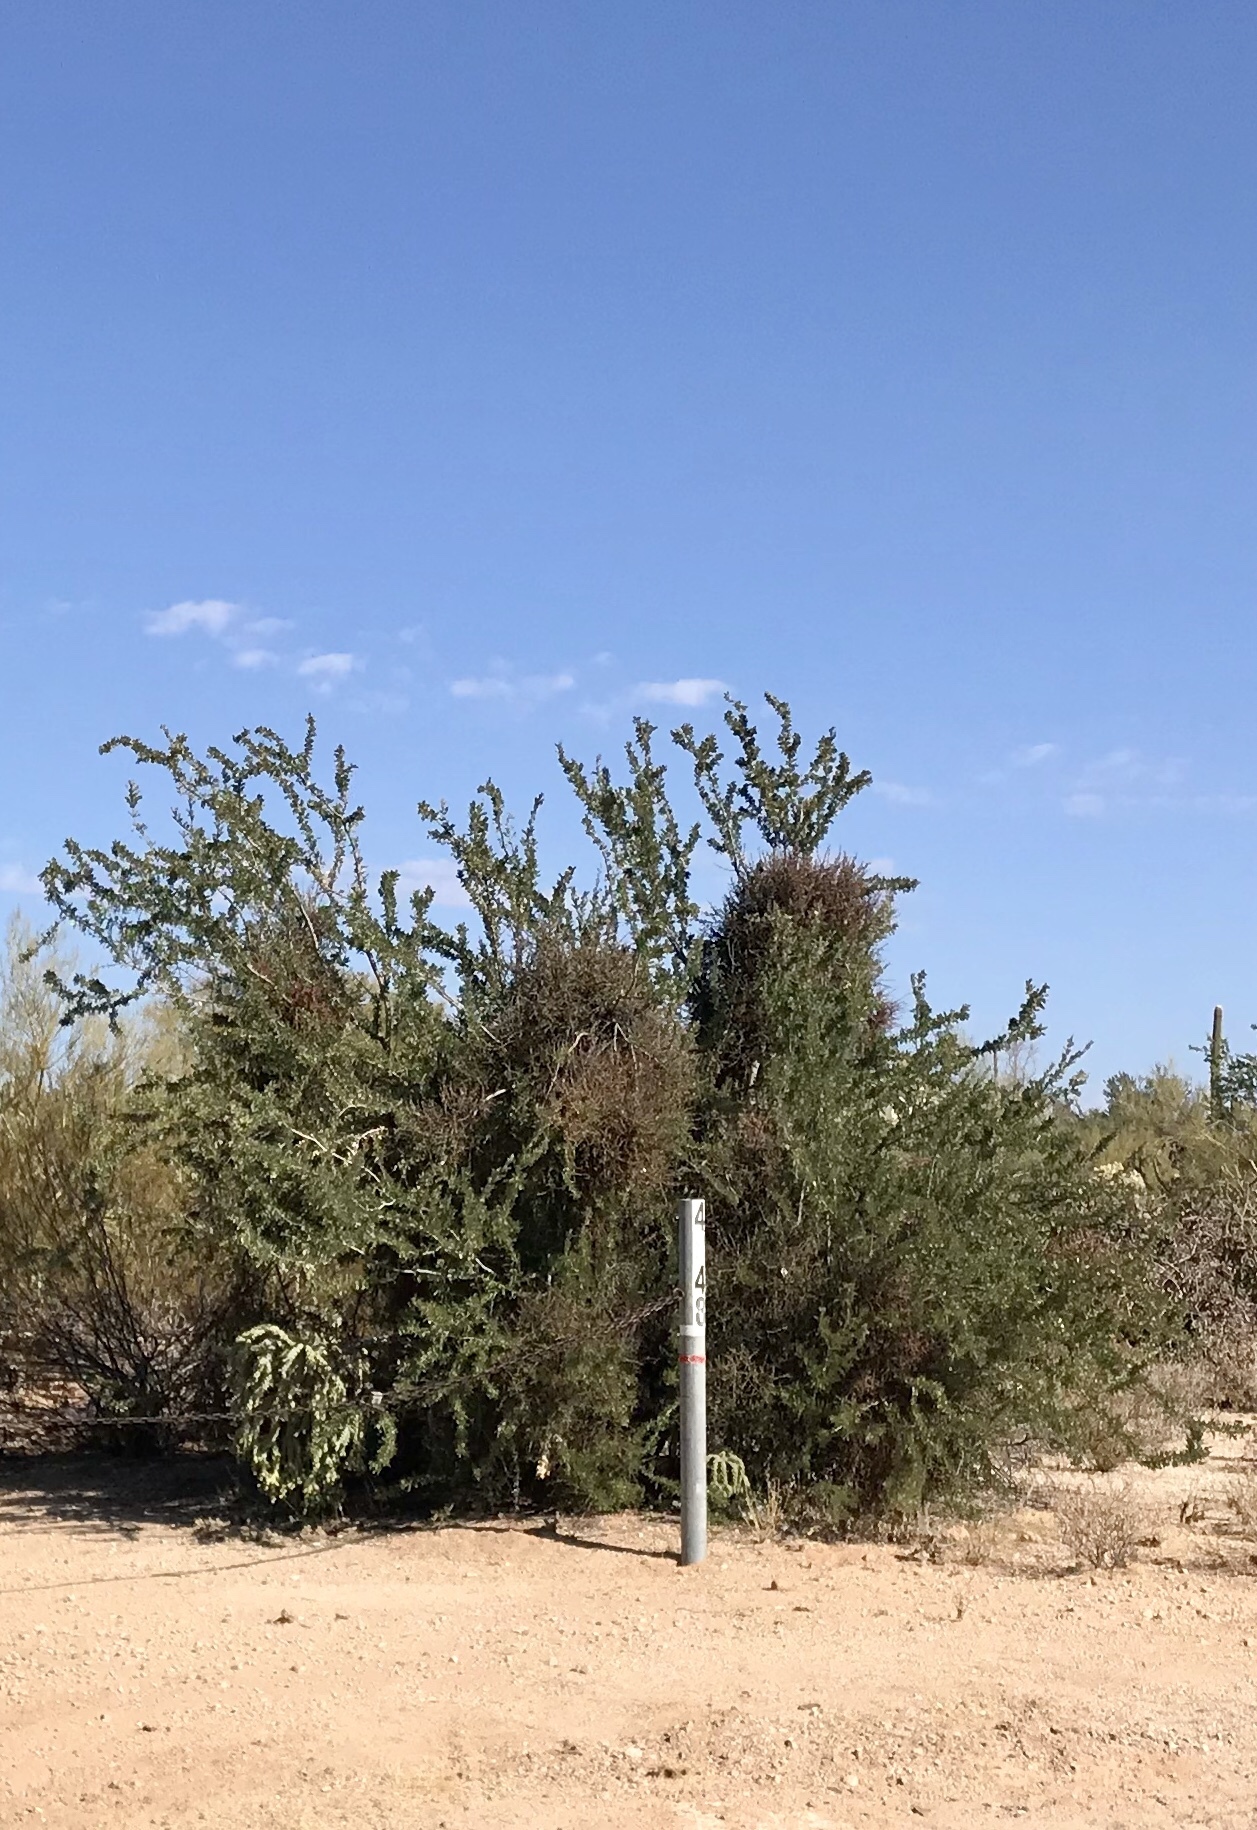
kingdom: Plantae
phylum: Tracheophyta
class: Magnoliopsida
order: Fabales
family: Fabaceae
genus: Olneya
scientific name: Olneya tesota
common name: Desert ironwood
